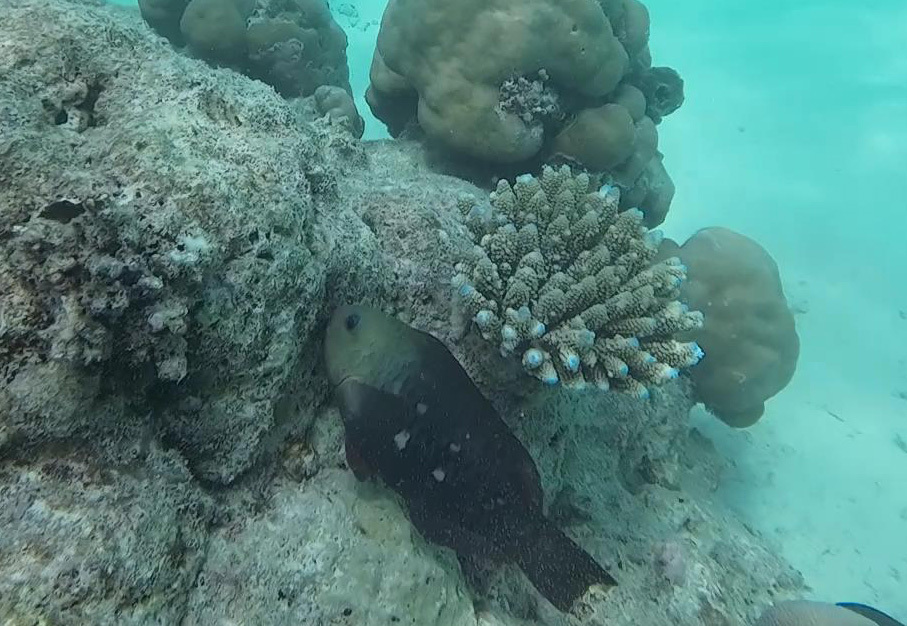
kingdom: Animalia
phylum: Chordata
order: Perciformes
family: Scaridae
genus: Chlorurus
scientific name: Chlorurus sordidus
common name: Bullethead parrotfish
